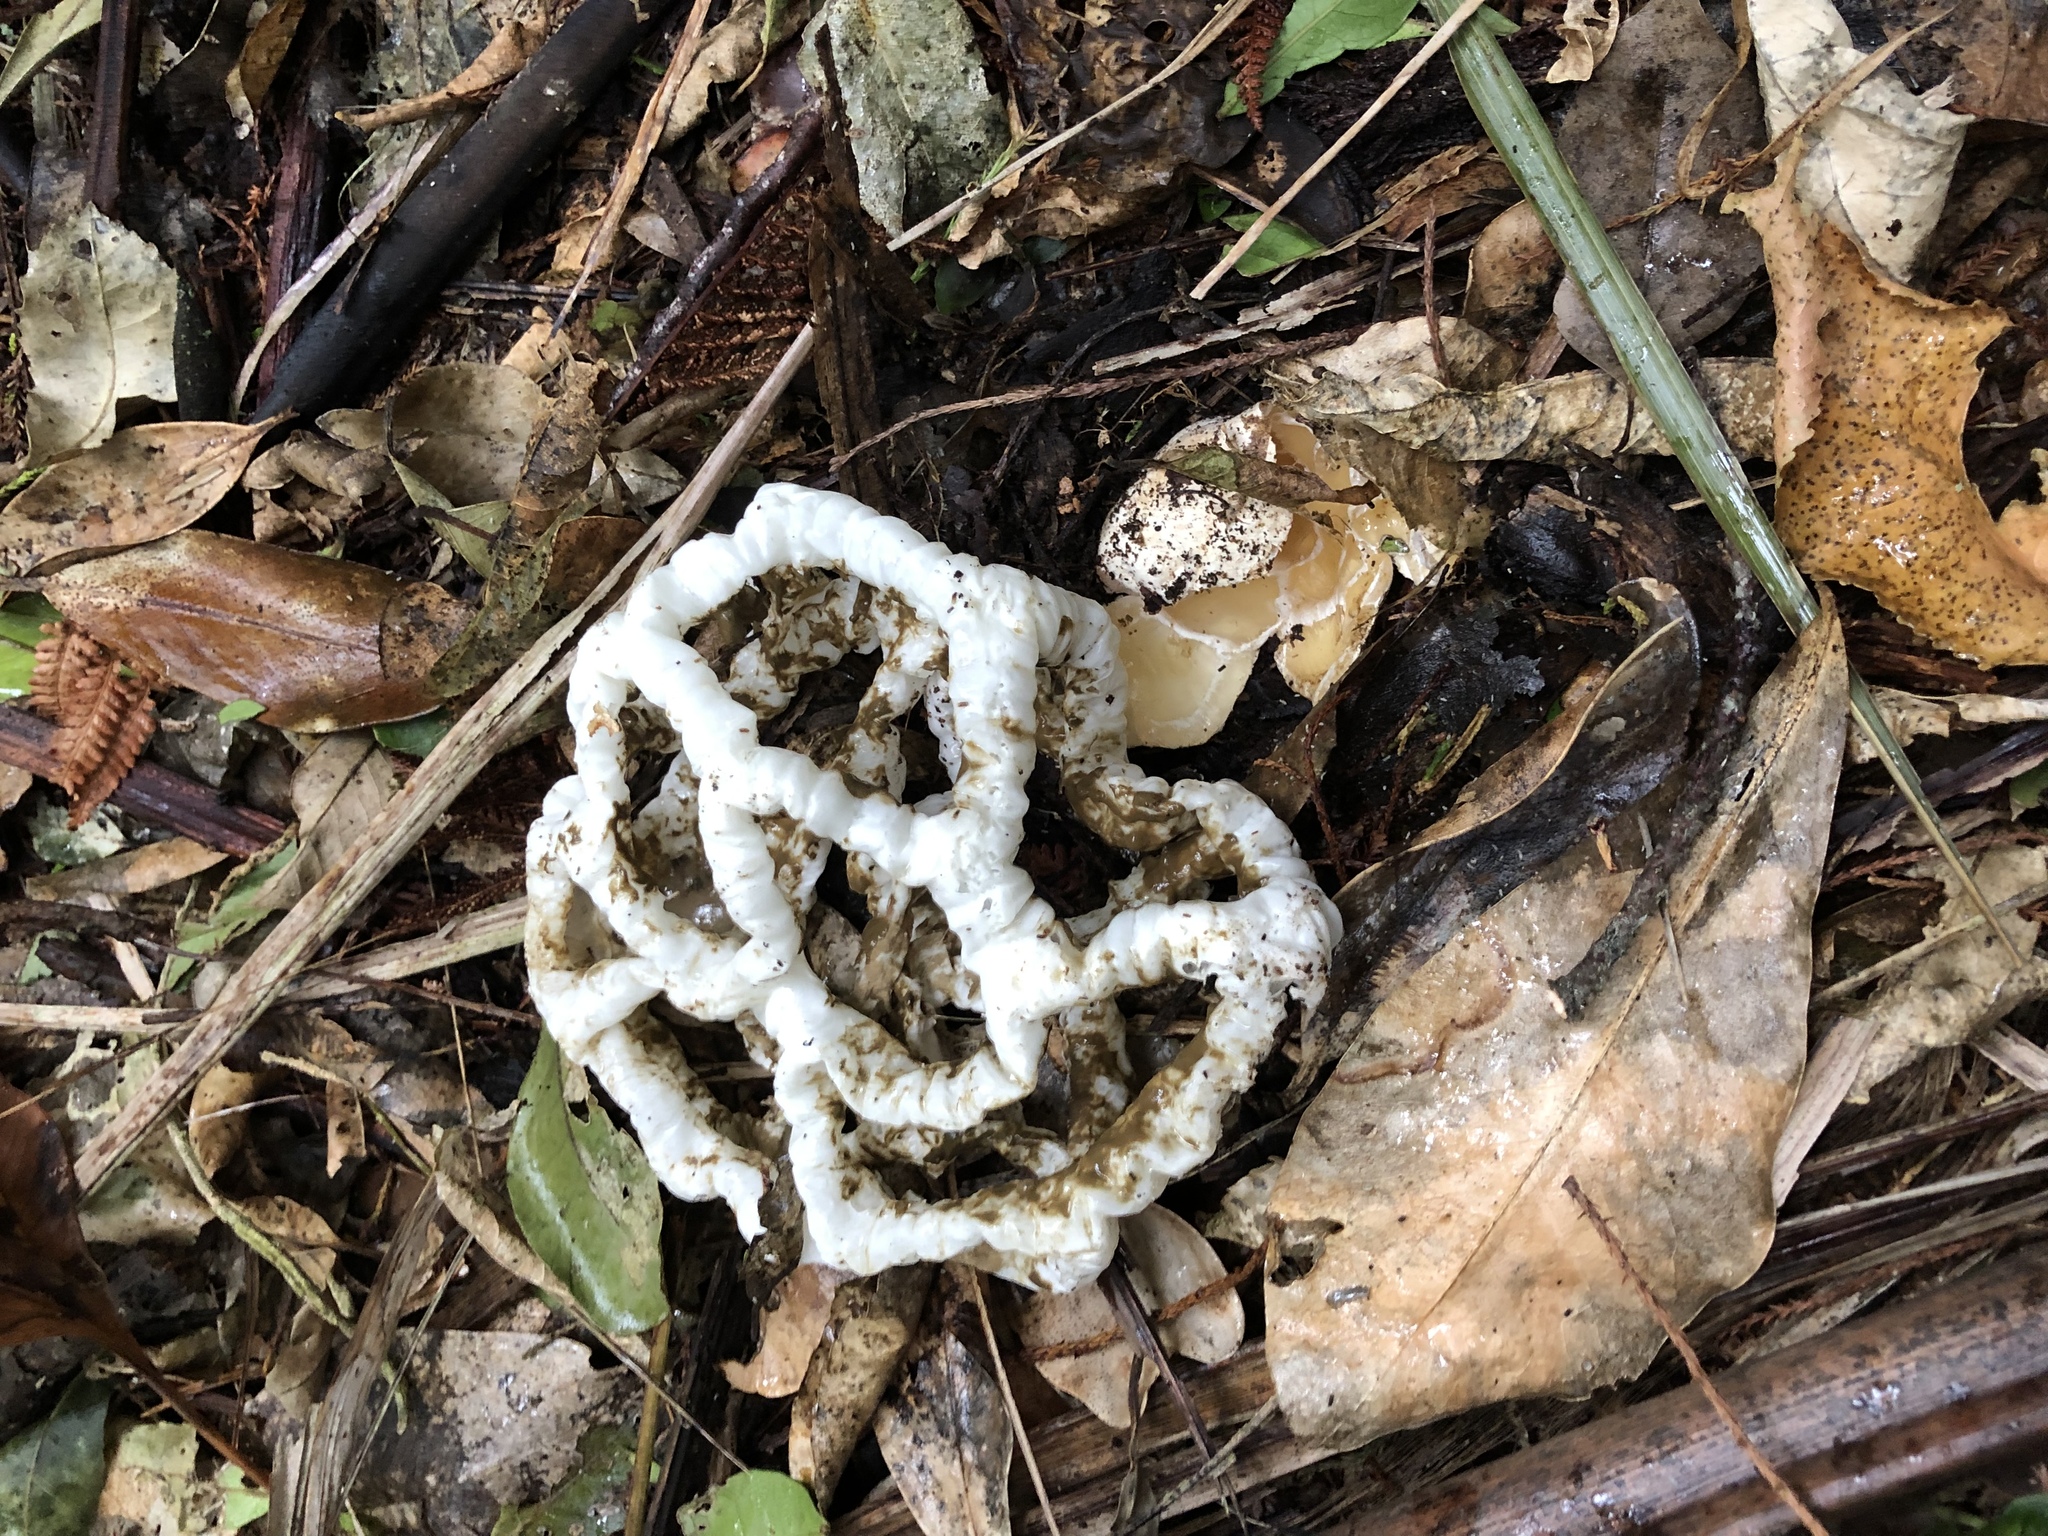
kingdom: Fungi
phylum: Basidiomycota
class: Agaricomycetes
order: Phallales
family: Phallaceae
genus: Ileodictyon
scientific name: Ileodictyon cibarium
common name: Basket fungus
